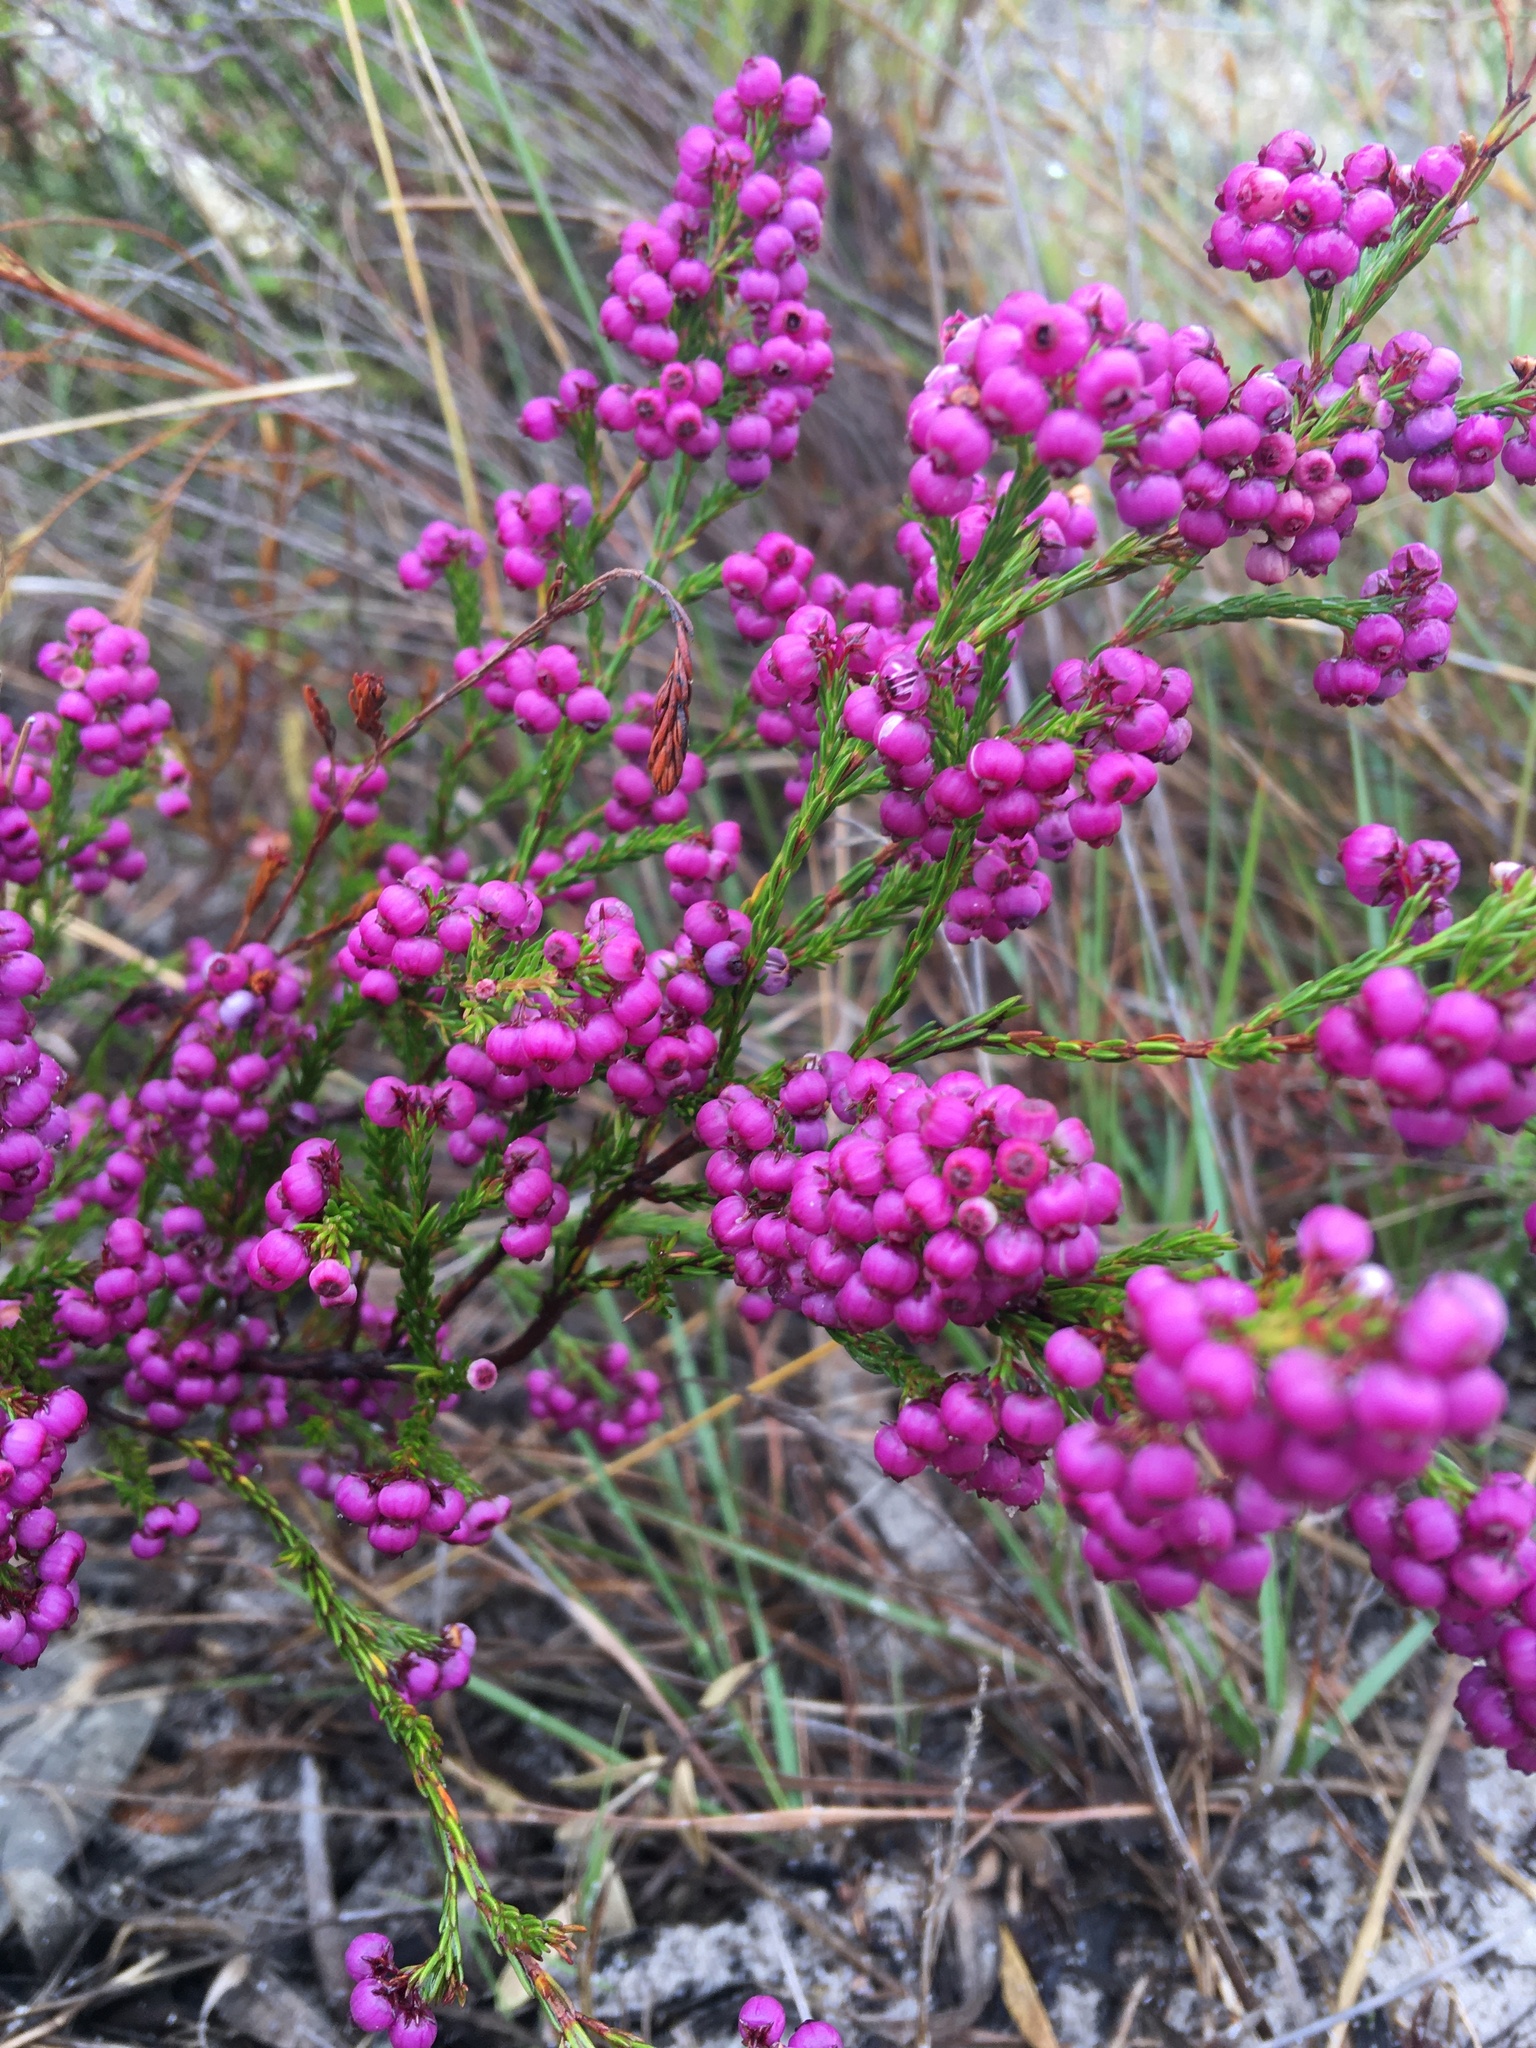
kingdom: Plantae
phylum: Tracheophyta
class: Magnoliopsida
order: Ericales
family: Ericaceae
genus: Erica
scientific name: Erica multumbellifera
